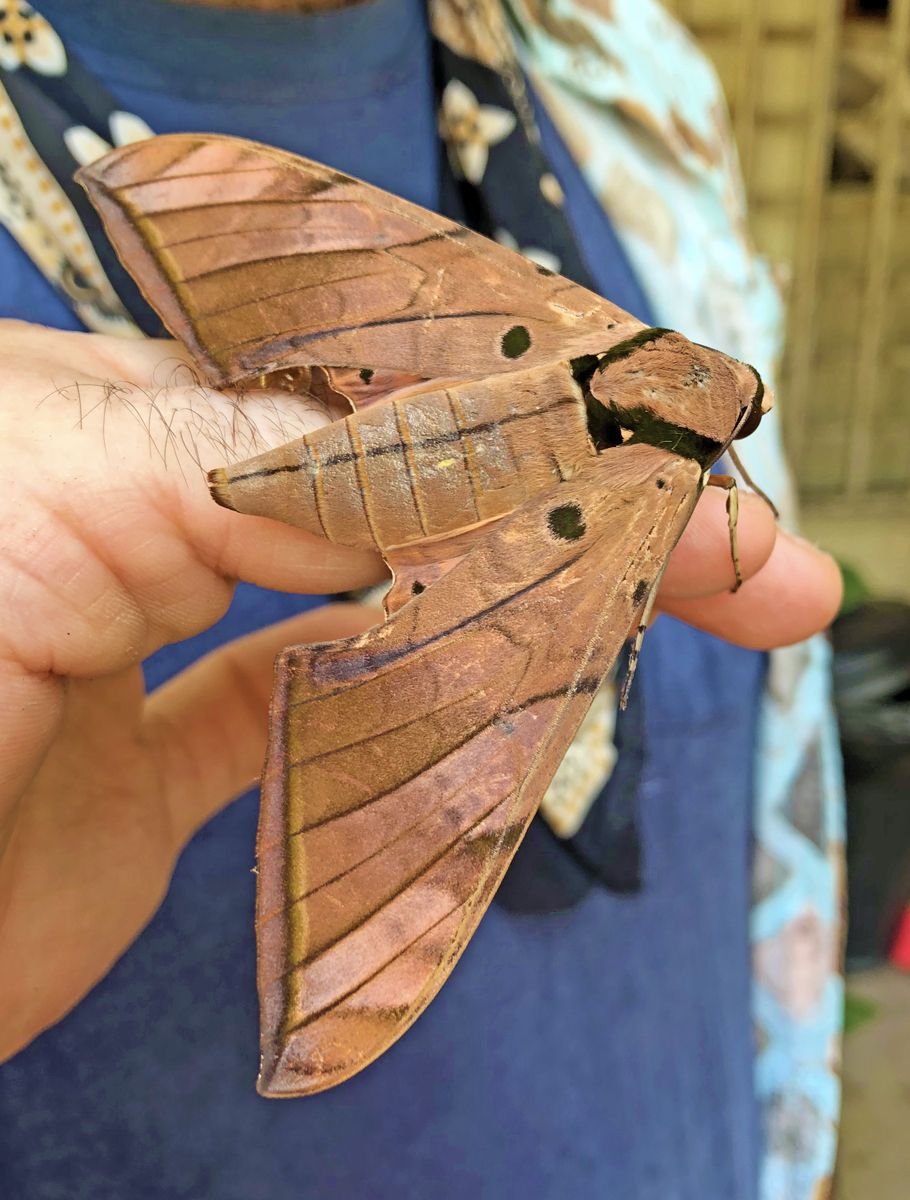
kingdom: Animalia
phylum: Arthropoda
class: Insecta
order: Lepidoptera
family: Sphingidae
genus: Ambulyx
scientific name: Ambulyx clavata
